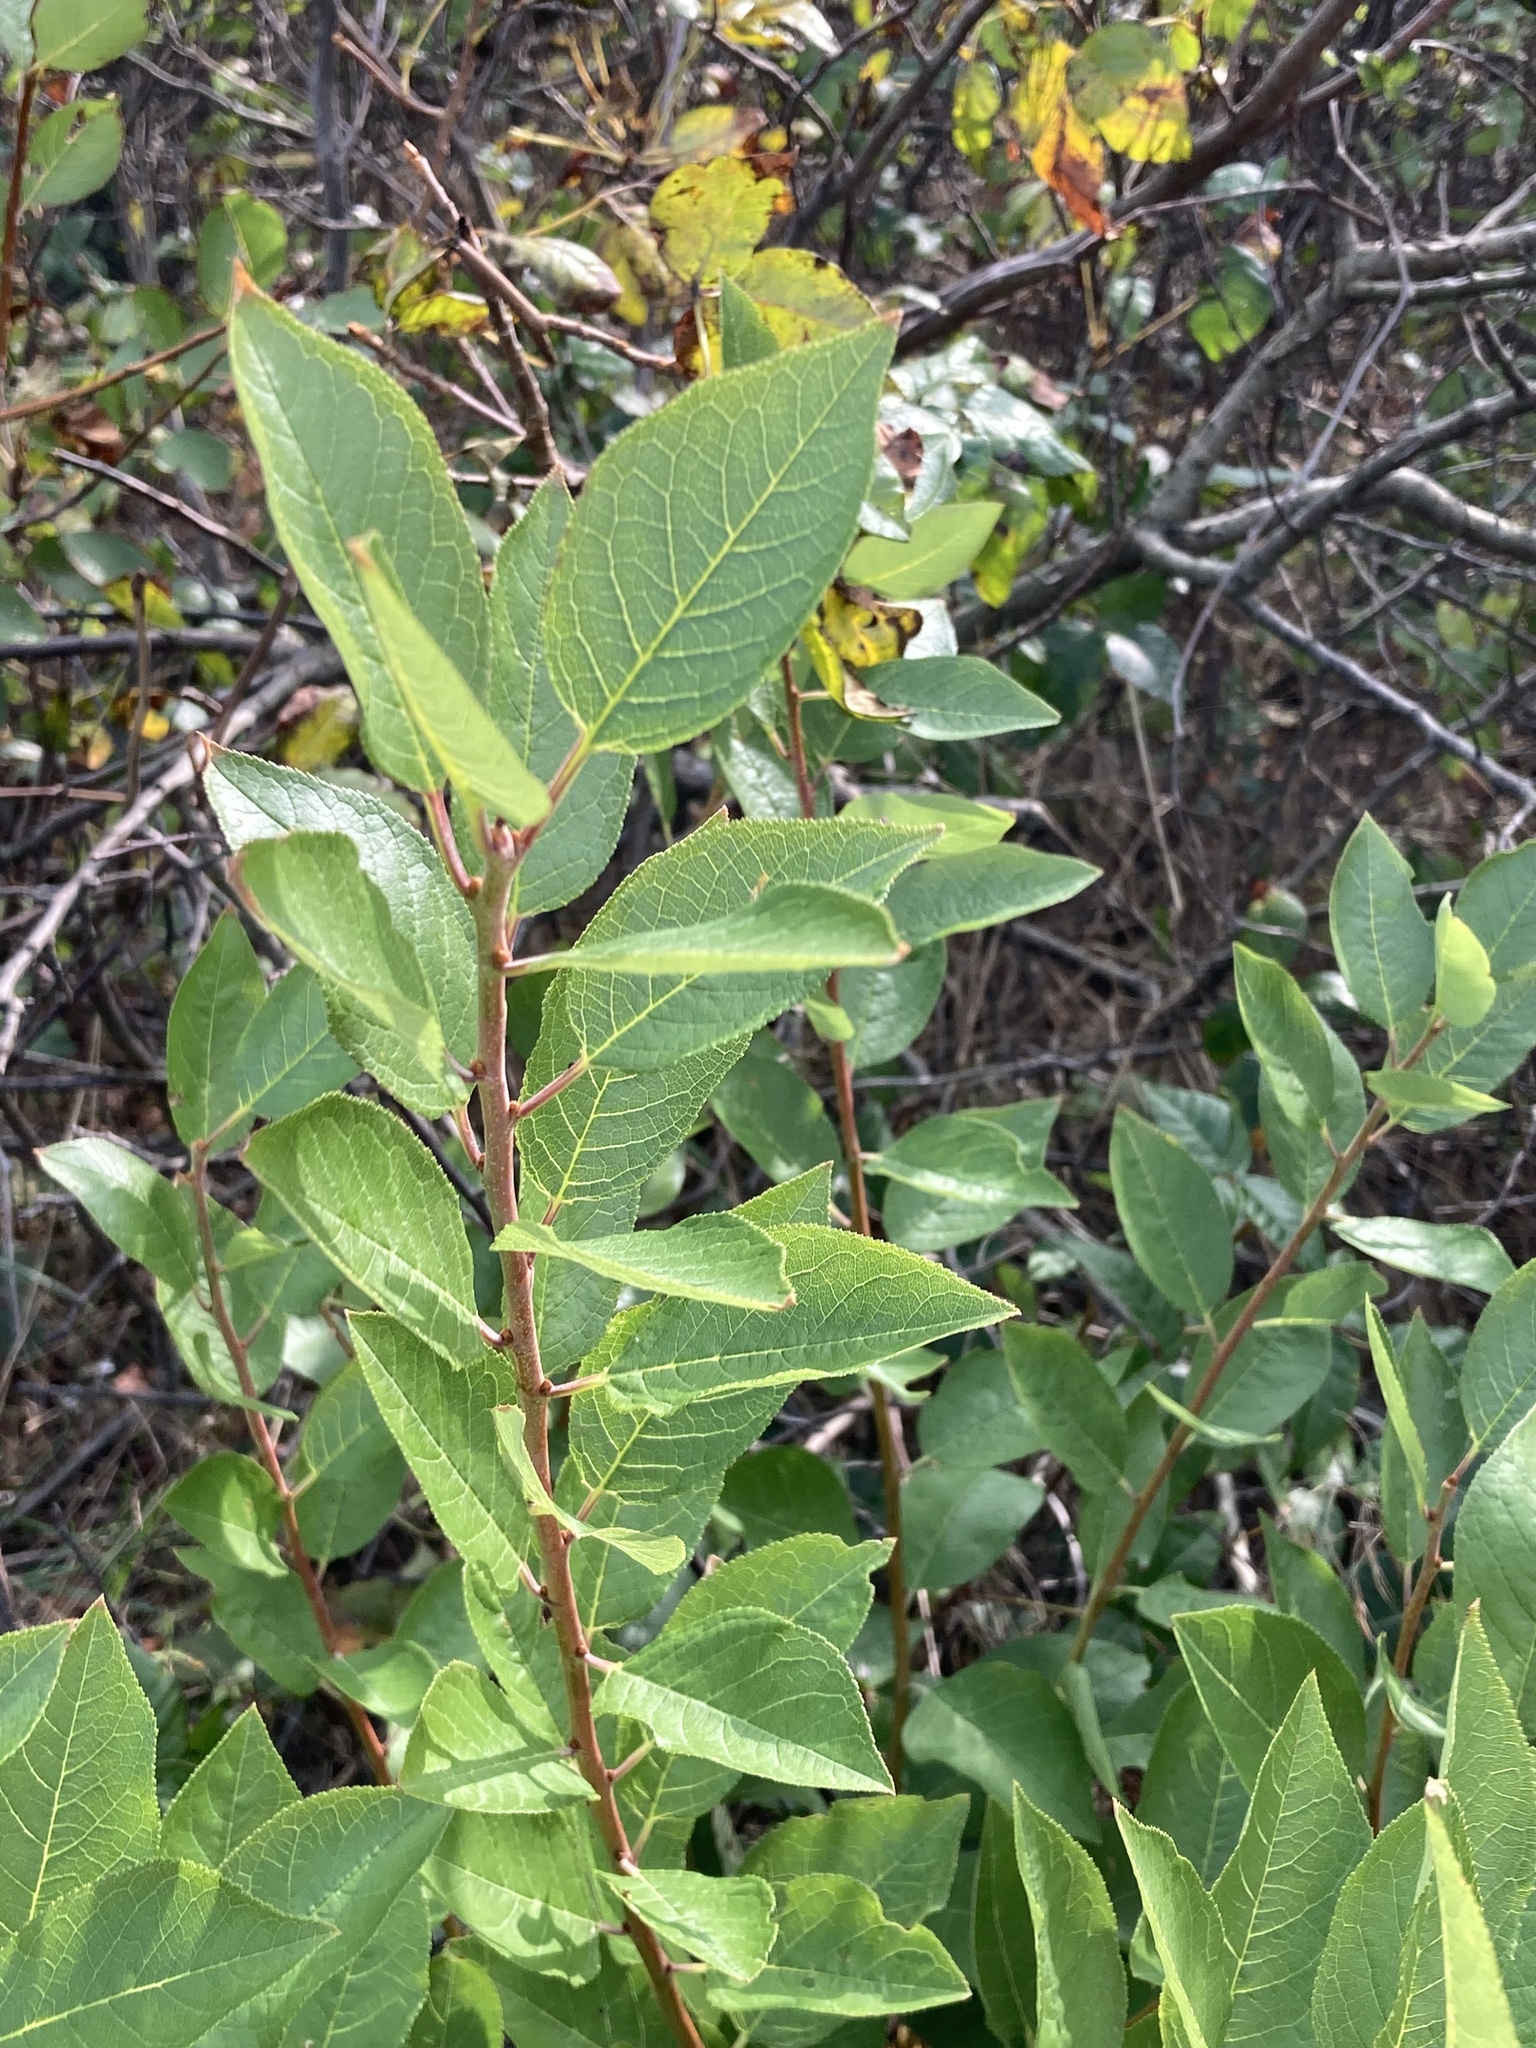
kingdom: Plantae
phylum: Tracheophyta
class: Magnoliopsida
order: Rosales
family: Rosaceae
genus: Prunus
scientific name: Prunus maritima
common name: Beach plum
